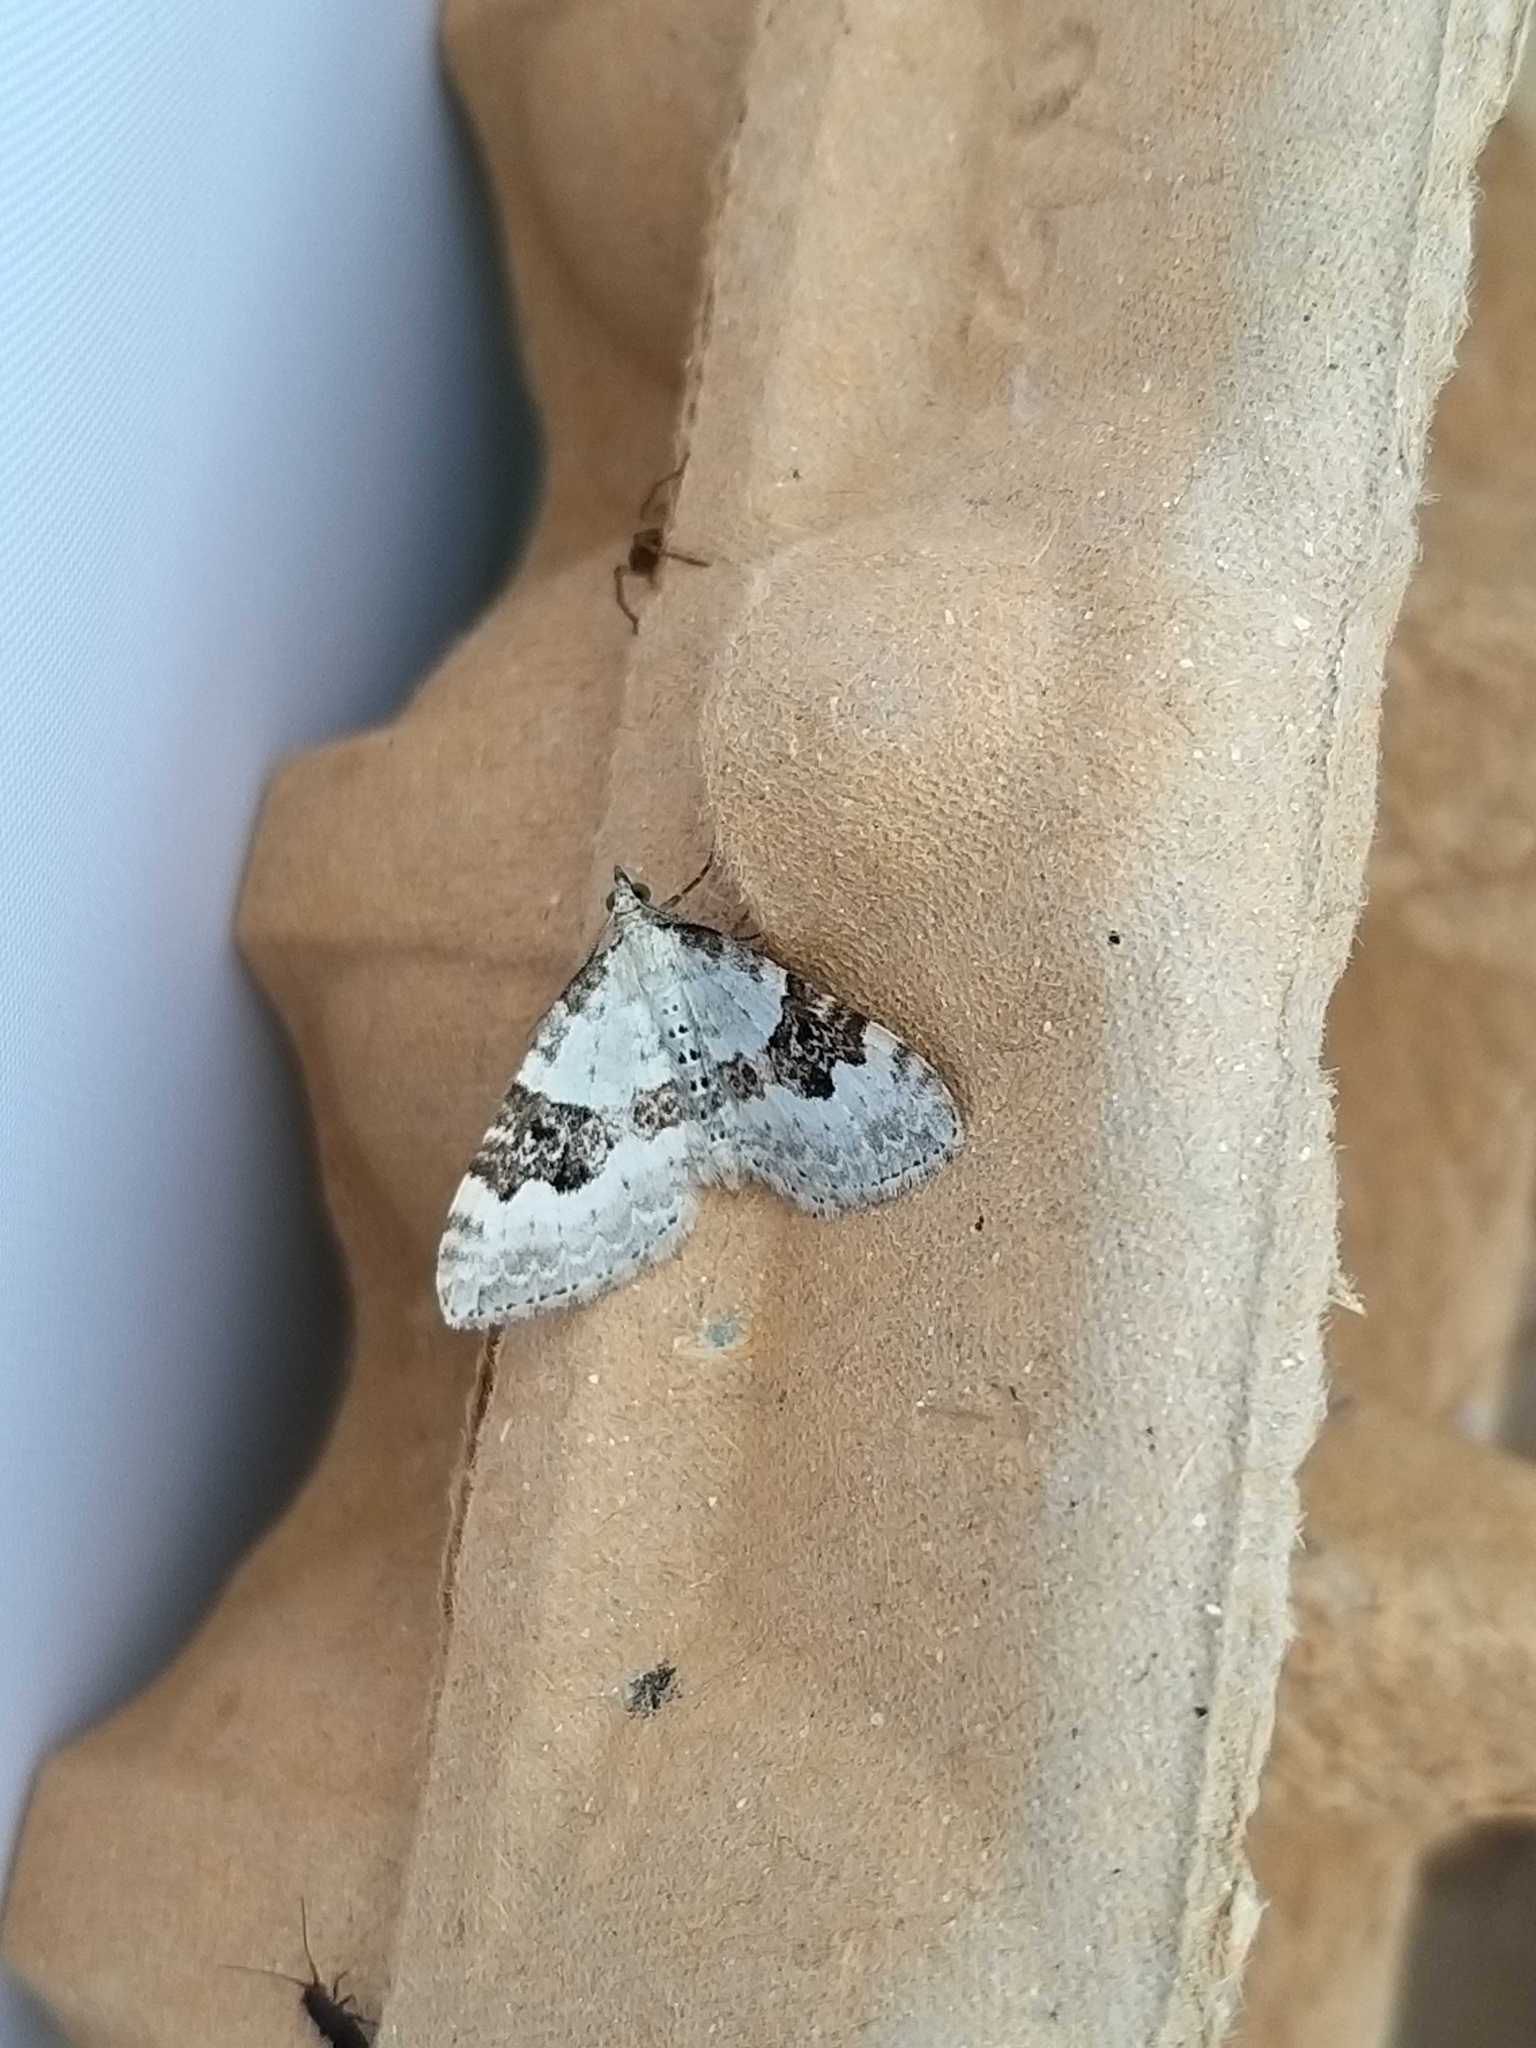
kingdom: Animalia
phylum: Arthropoda
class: Insecta
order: Lepidoptera
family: Geometridae
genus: Xanthorhoe
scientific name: Xanthorhoe montanata
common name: Silver-ground carpet
